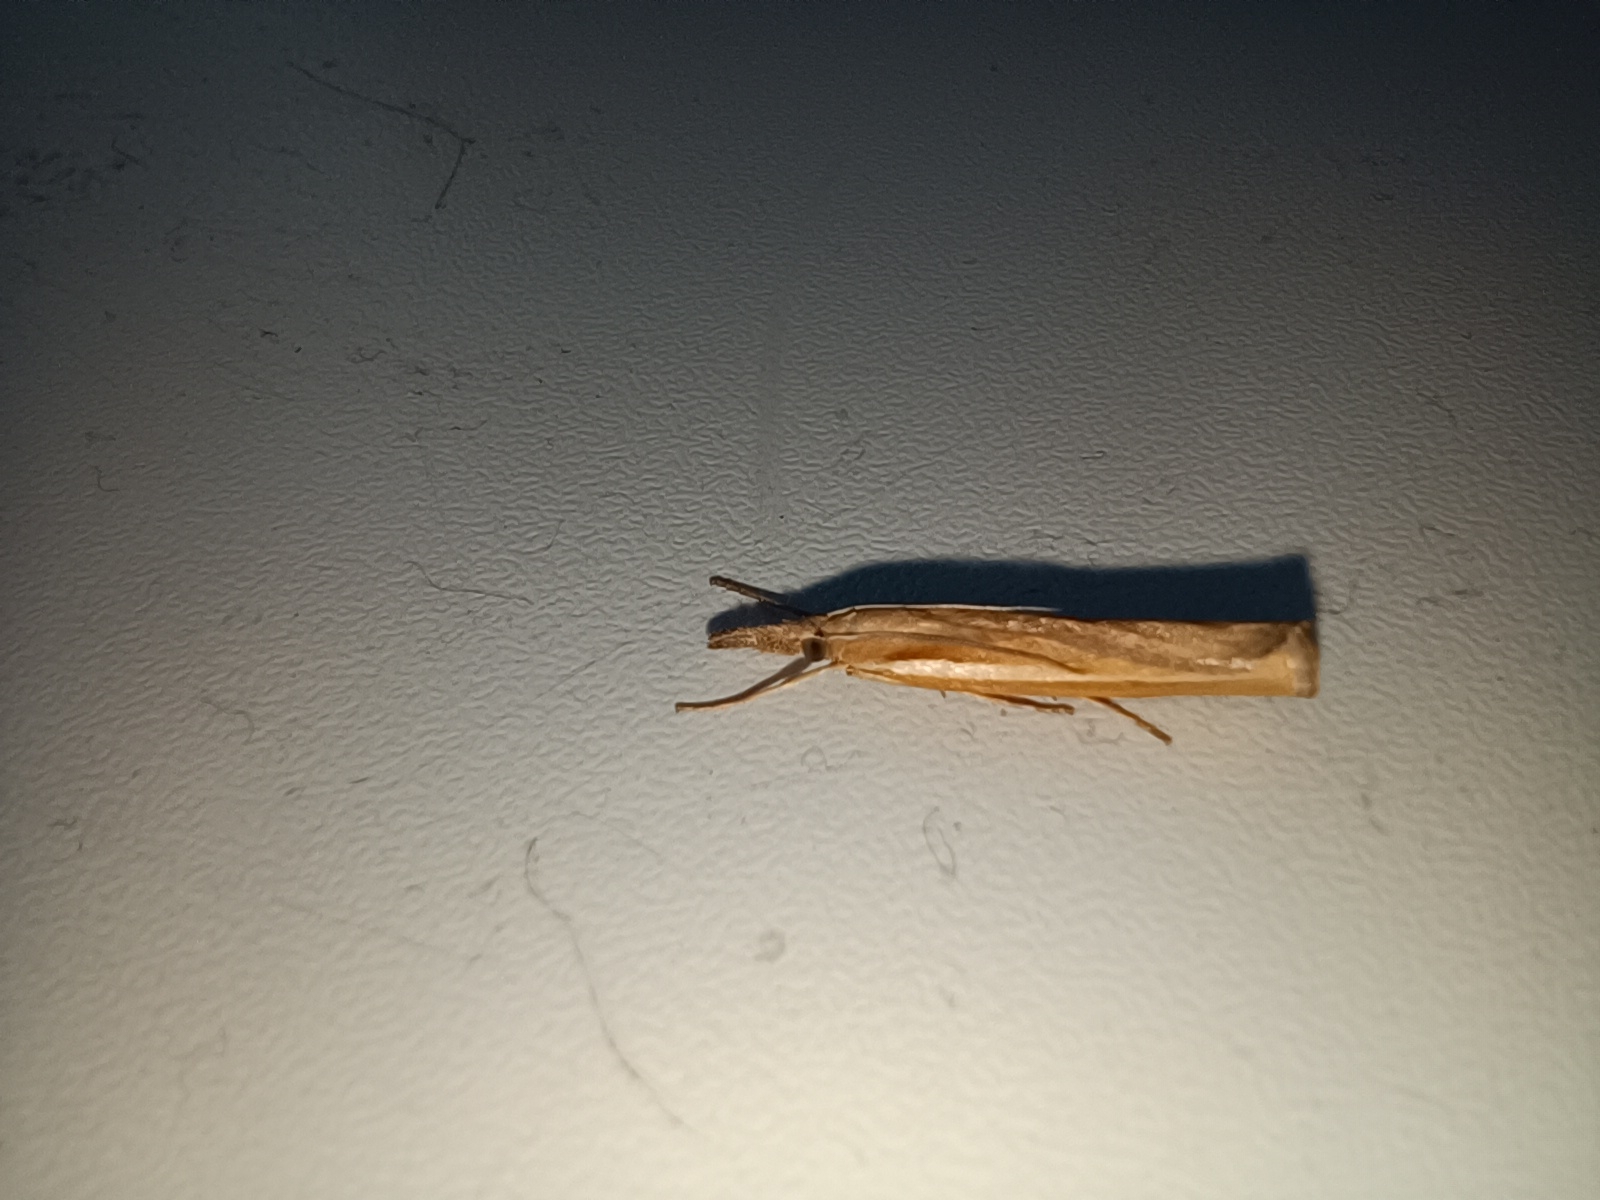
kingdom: Animalia
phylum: Arthropoda
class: Insecta
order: Lepidoptera
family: Crambidae
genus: Agriphila
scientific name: Agriphila tristellus
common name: Common grass-veneer
